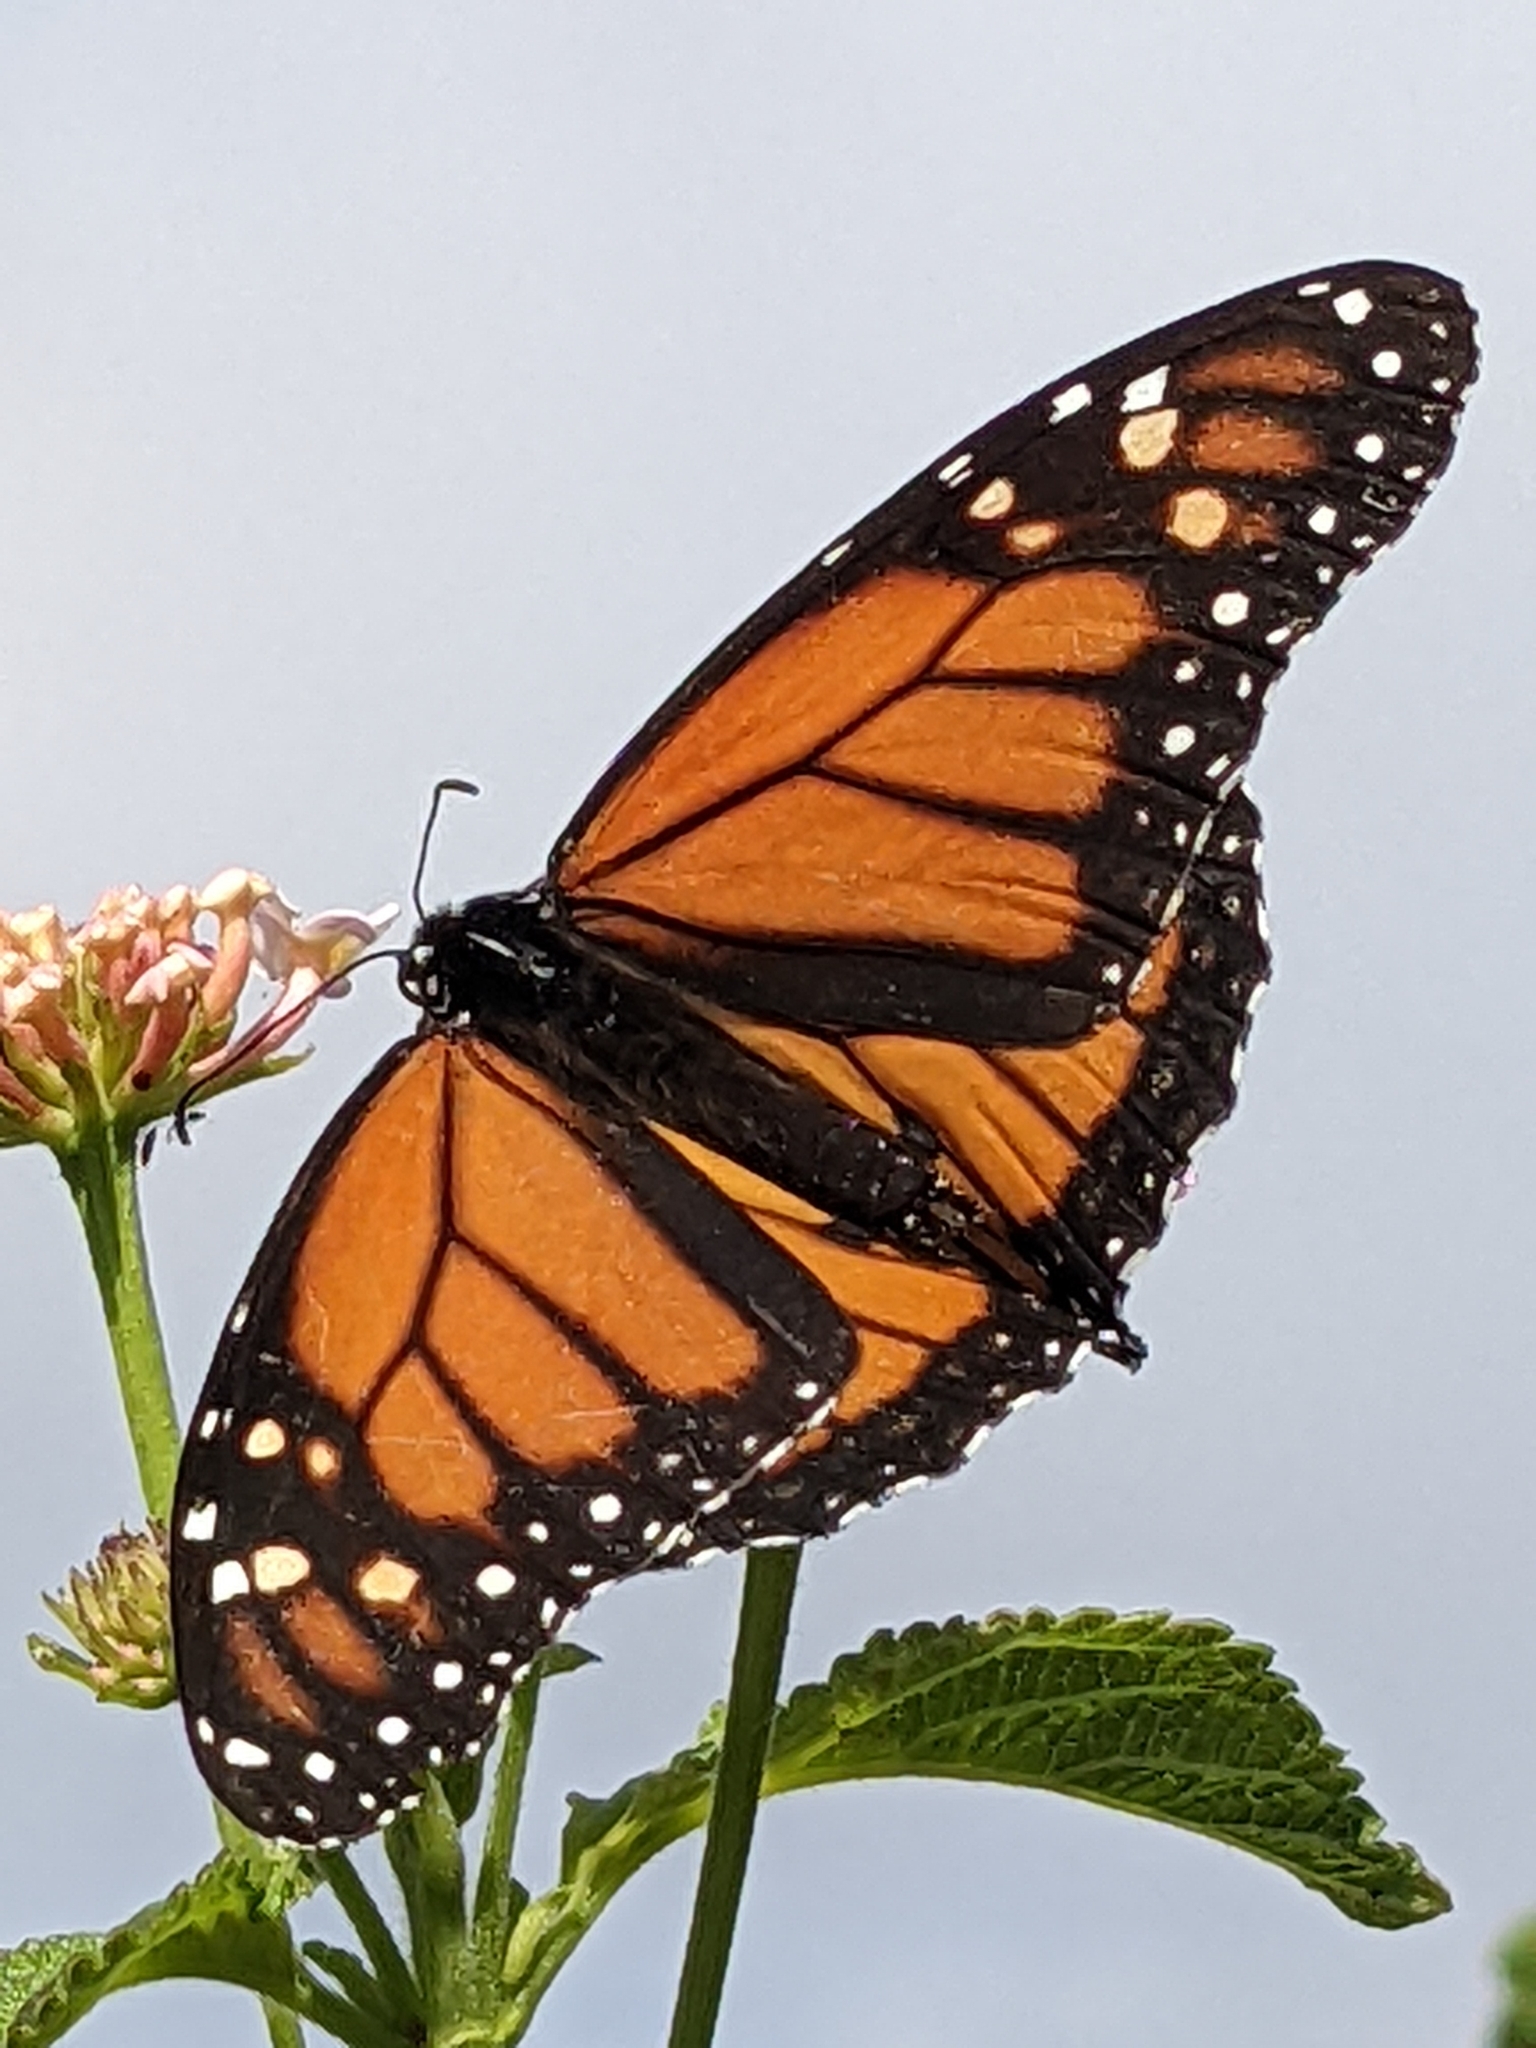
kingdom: Animalia
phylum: Arthropoda
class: Insecta
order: Lepidoptera
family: Nymphalidae
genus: Danaus
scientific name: Danaus plexippus
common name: Monarch
